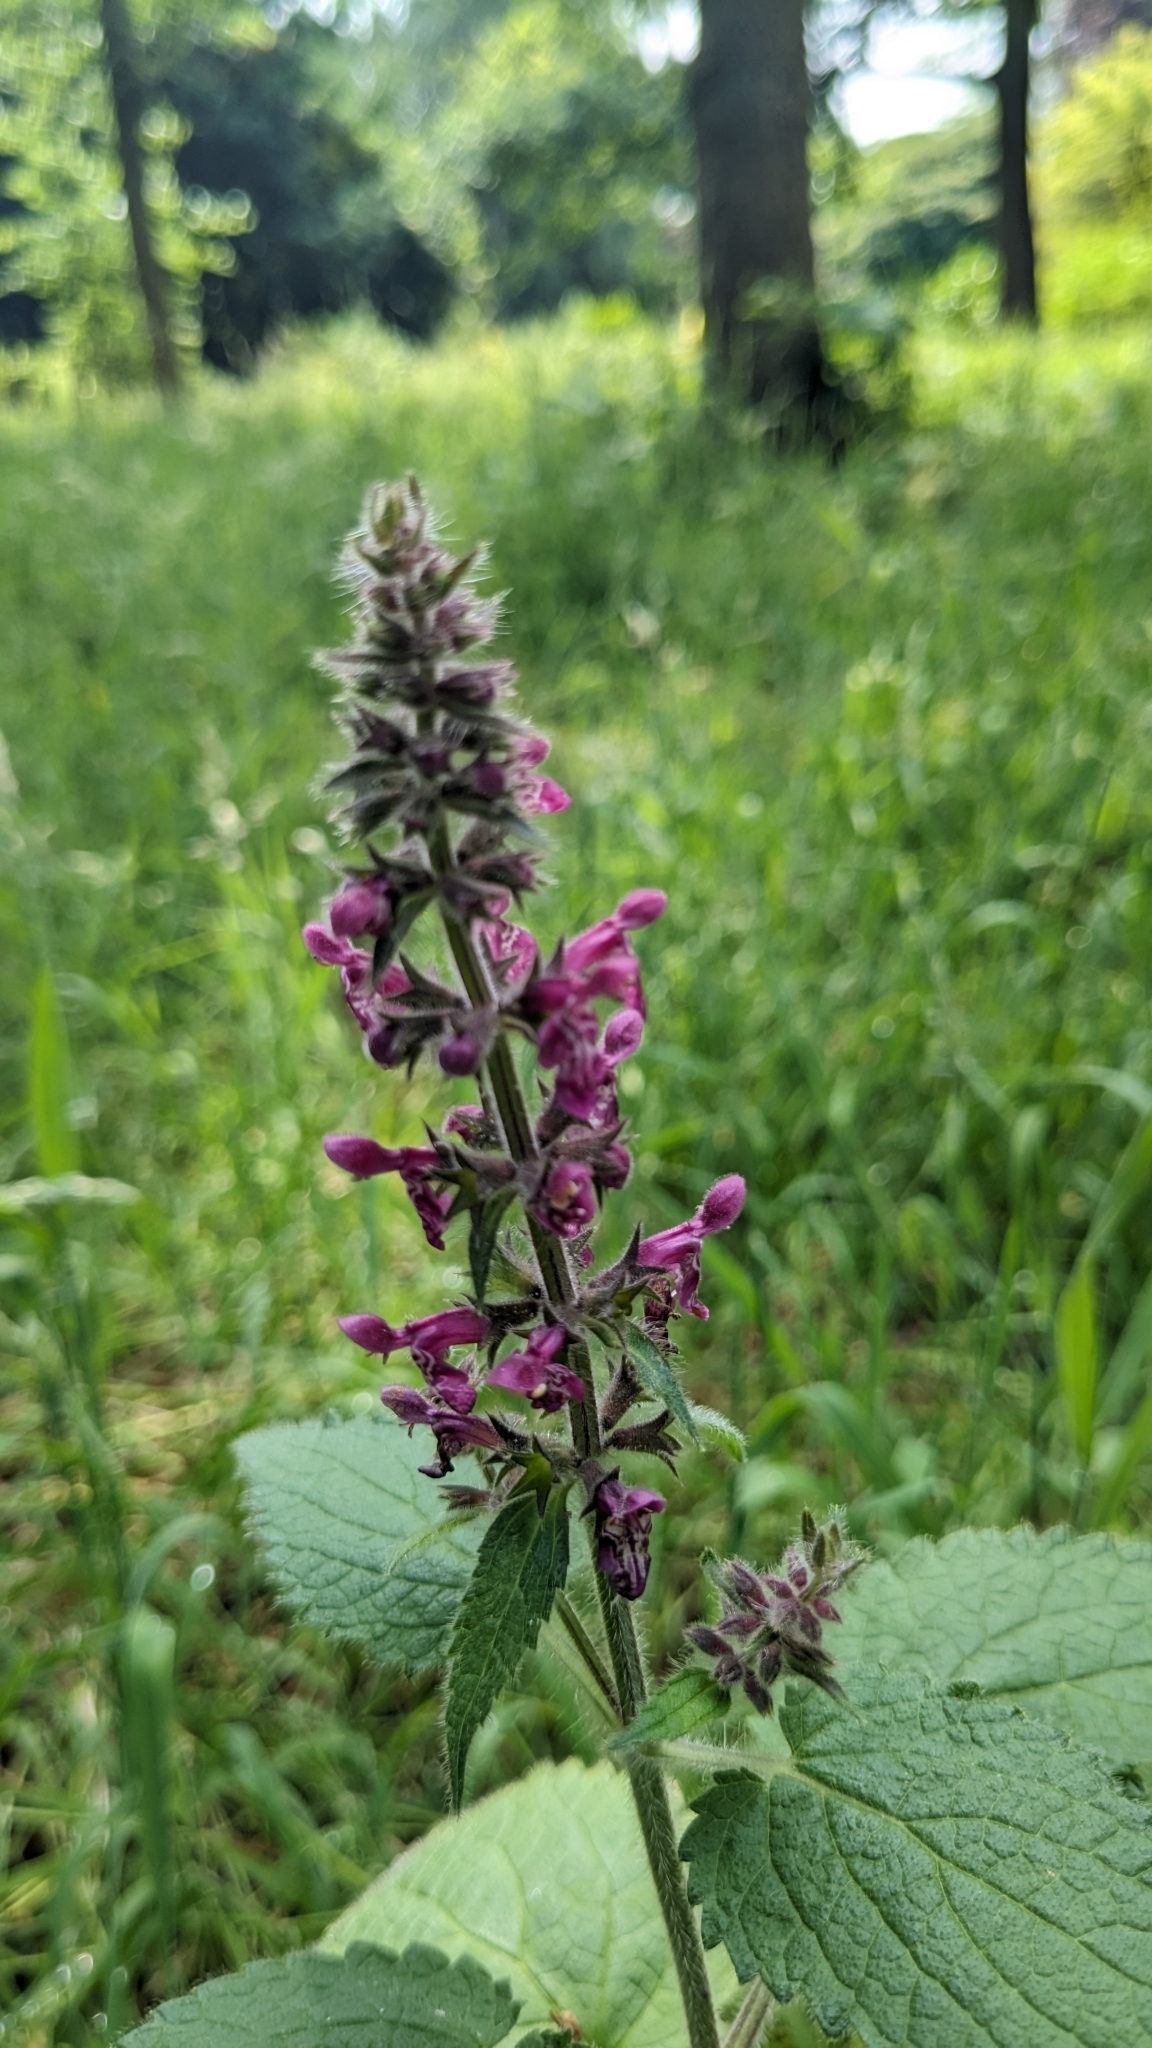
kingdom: Plantae
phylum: Tracheophyta
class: Magnoliopsida
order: Lamiales
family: Lamiaceae
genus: Stachys
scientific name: Stachys sylvatica
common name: Hedge woundwort
